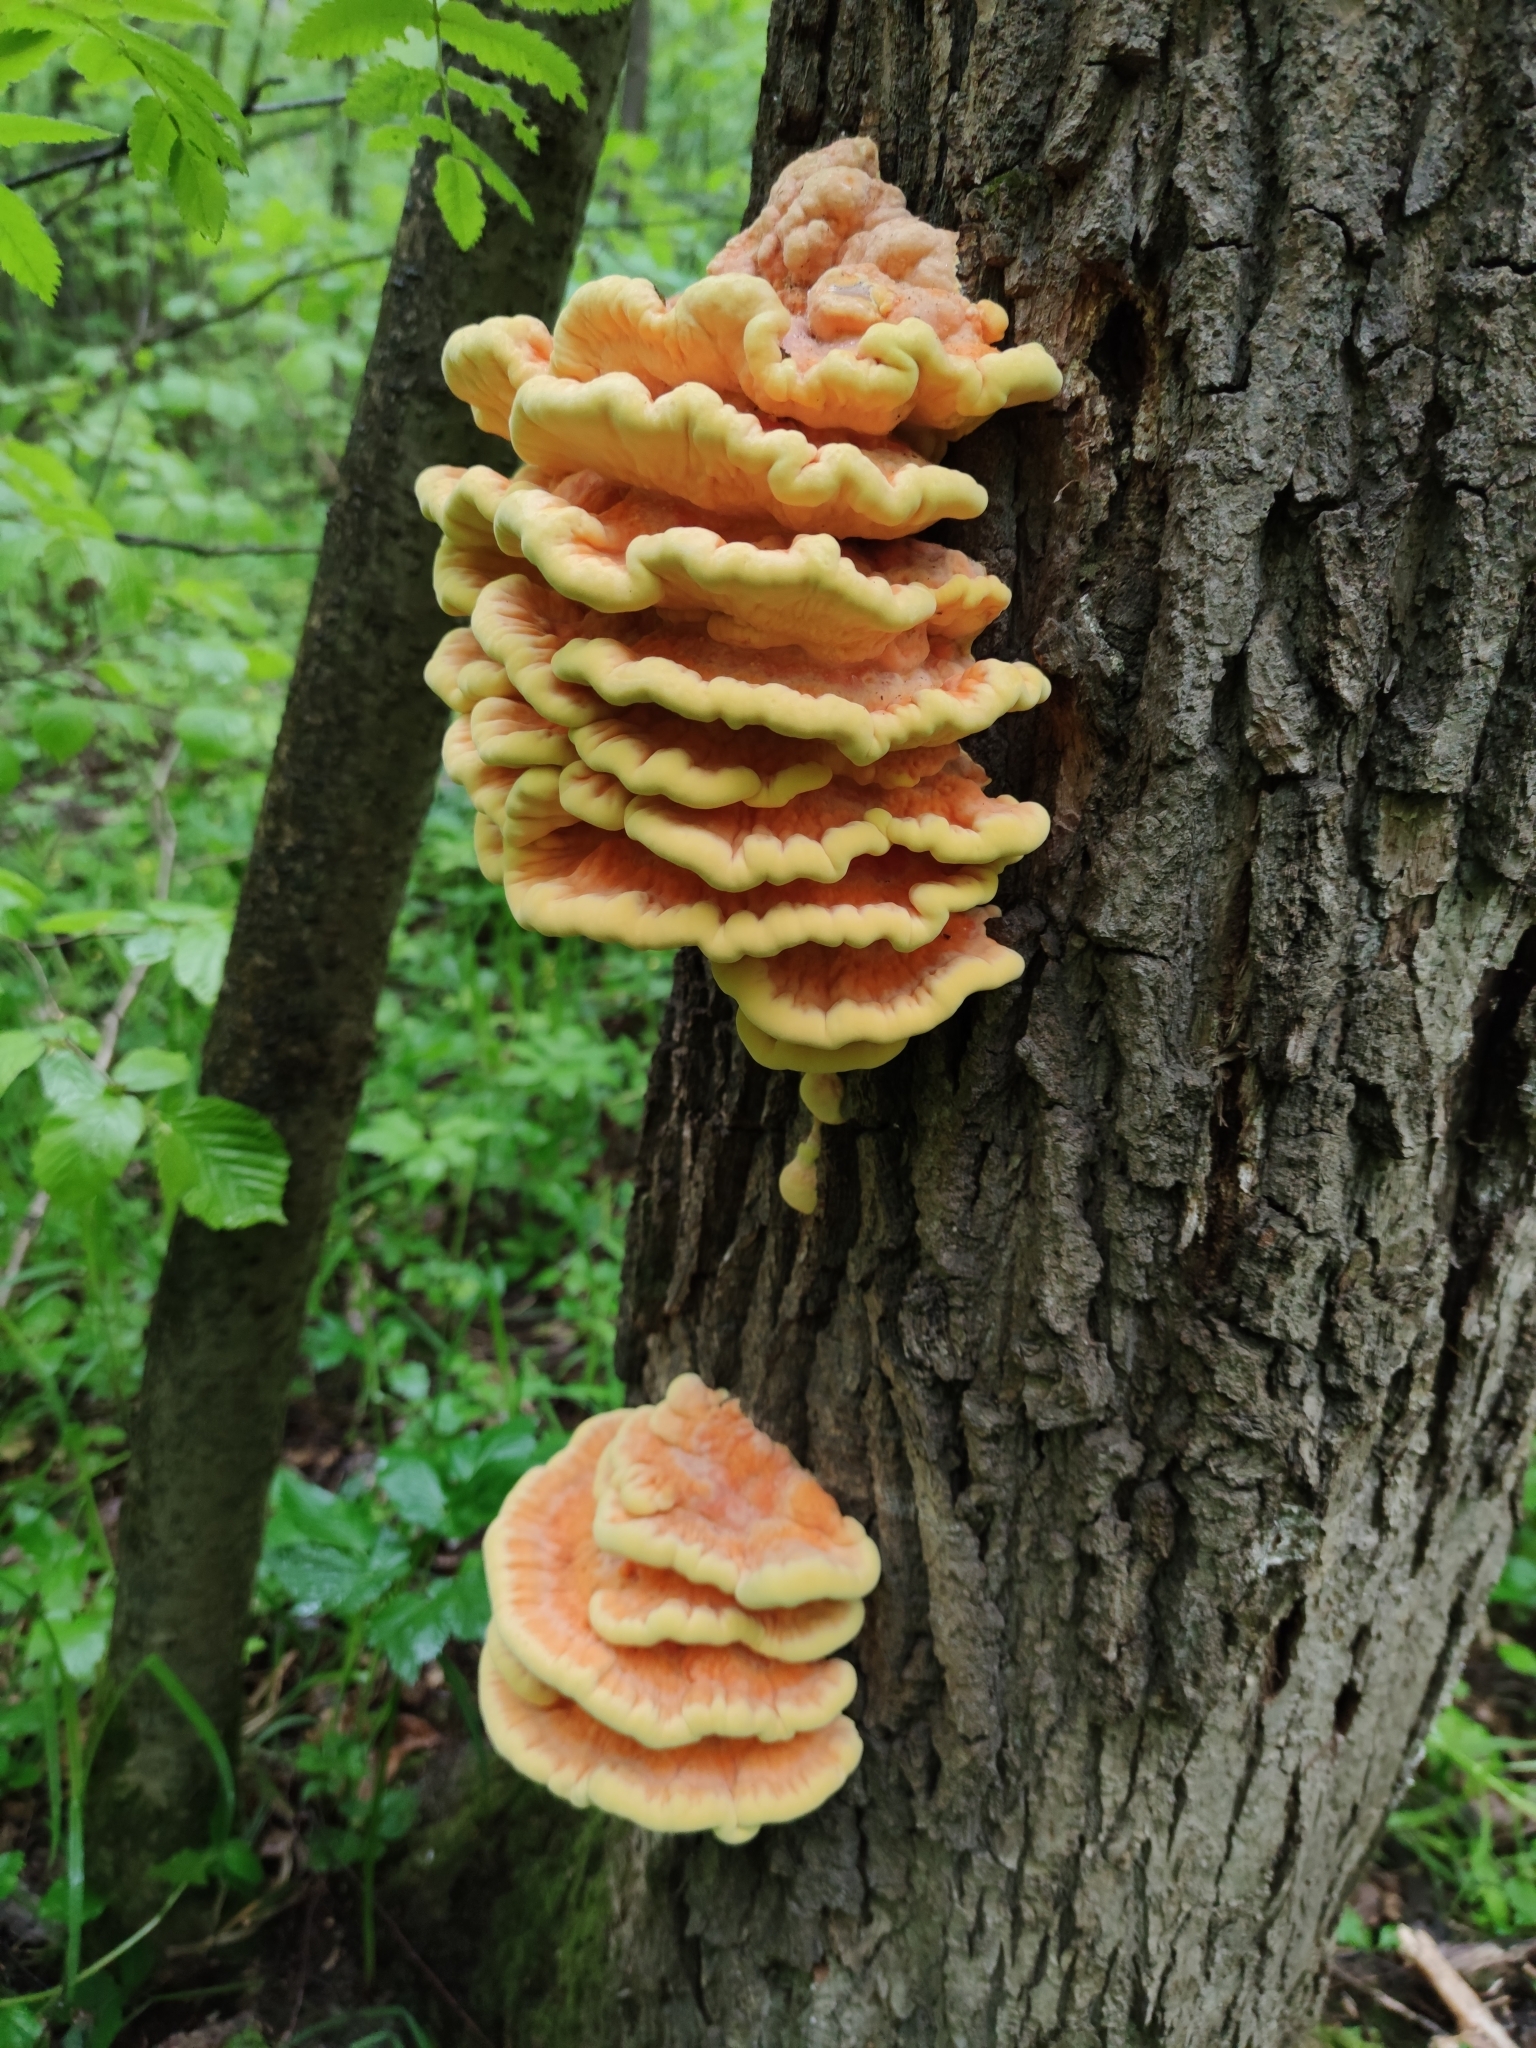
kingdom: Fungi
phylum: Basidiomycota
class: Agaricomycetes
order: Polyporales
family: Laetiporaceae
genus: Laetiporus
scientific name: Laetiporus sulphureus
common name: Chicken of the woods
